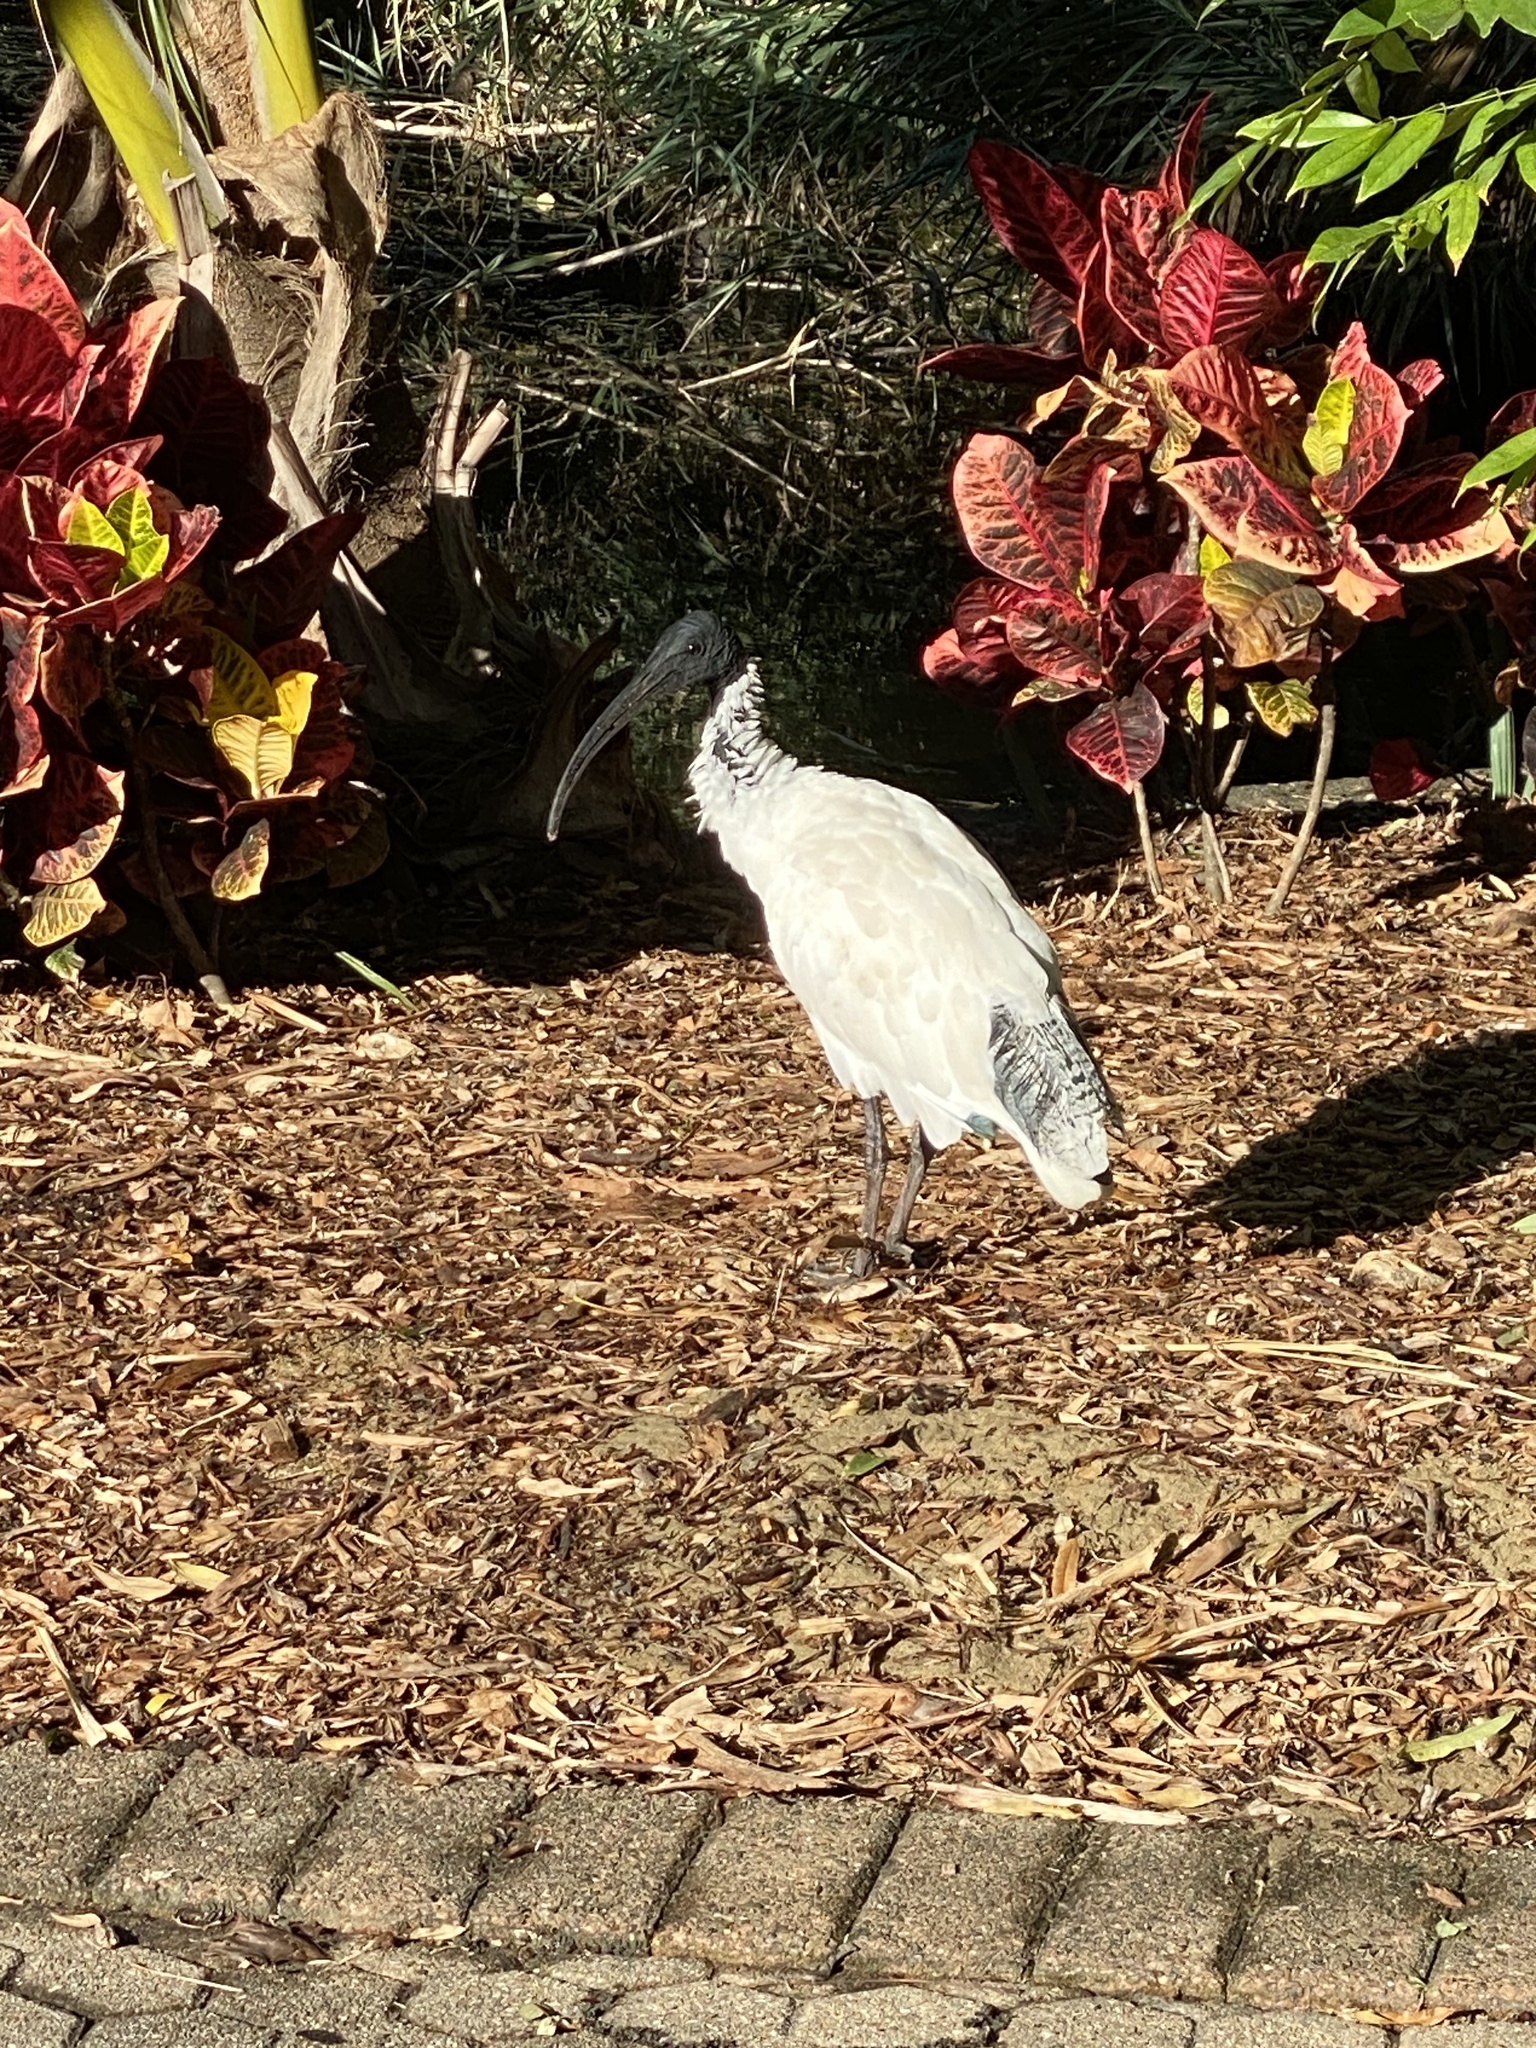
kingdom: Animalia
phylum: Chordata
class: Aves
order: Pelecaniformes
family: Threskiornithidae
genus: Threskiornis
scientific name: Threskiornis molucca
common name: Australian white ibis
